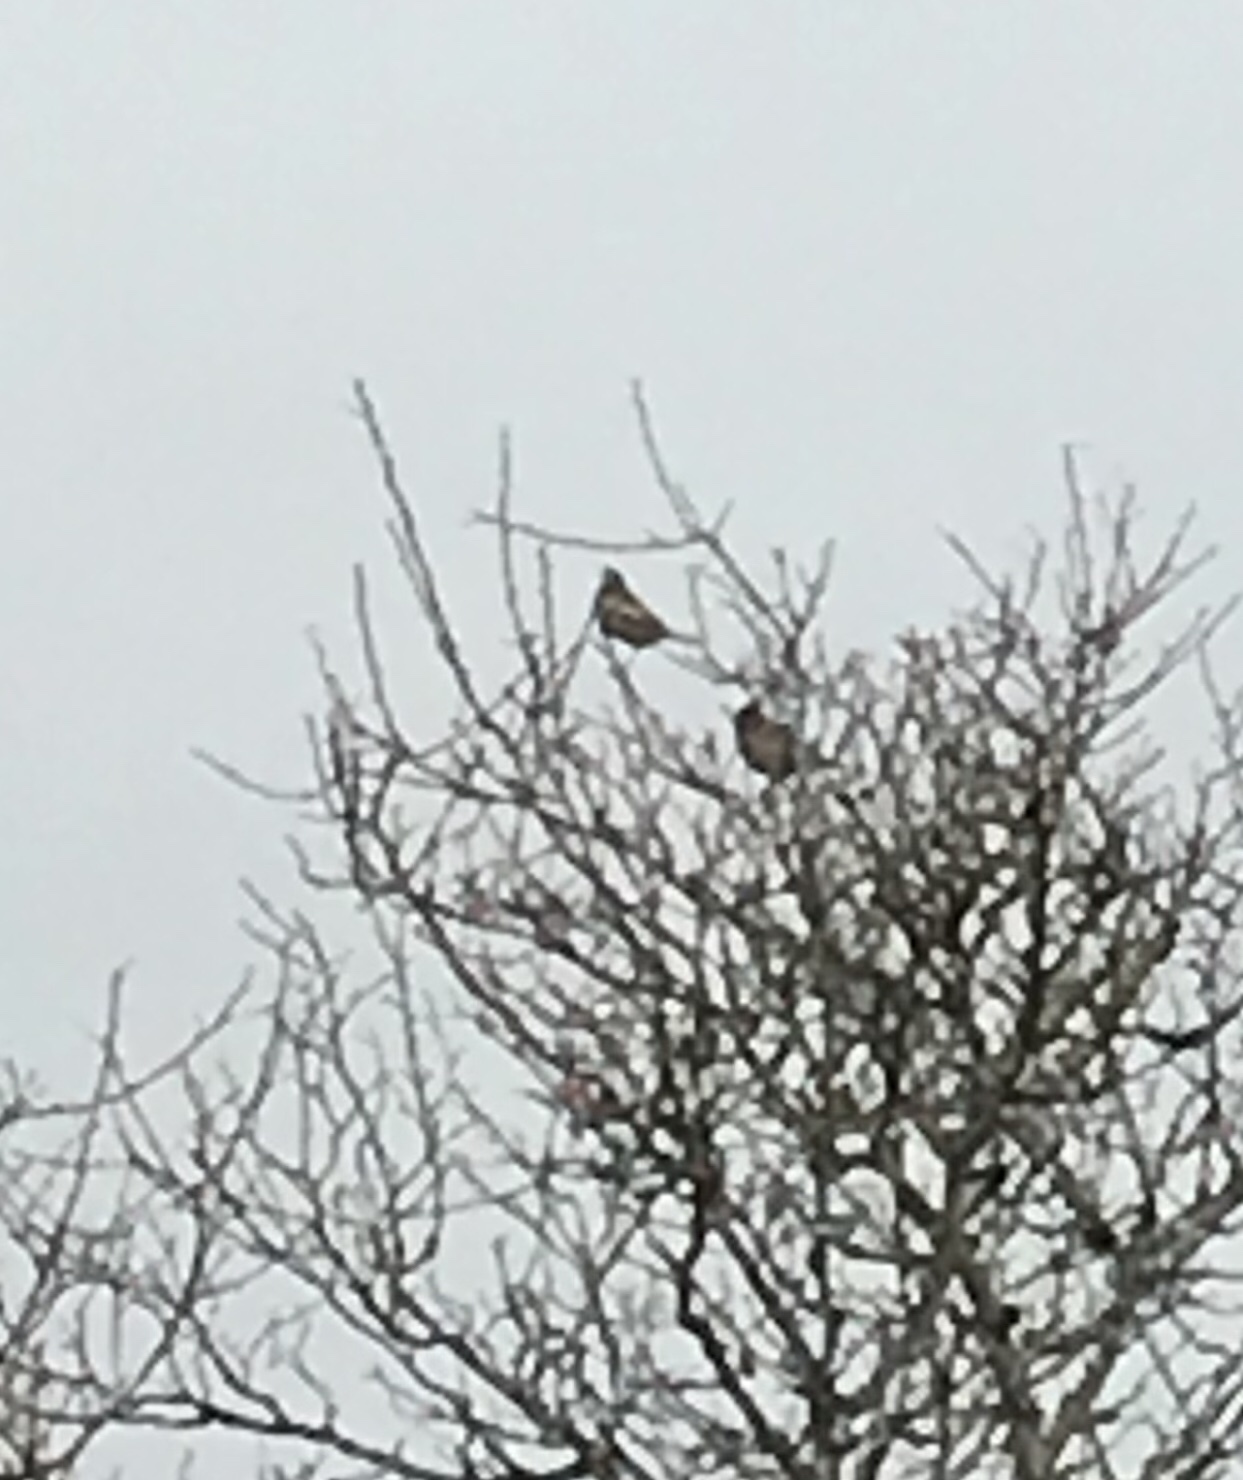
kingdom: Animalia
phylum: Chordata
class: Aves
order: Passeriformes
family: Passerellidae
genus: Calamospiza
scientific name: Calamospiza melanocorys
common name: Lark bunting
